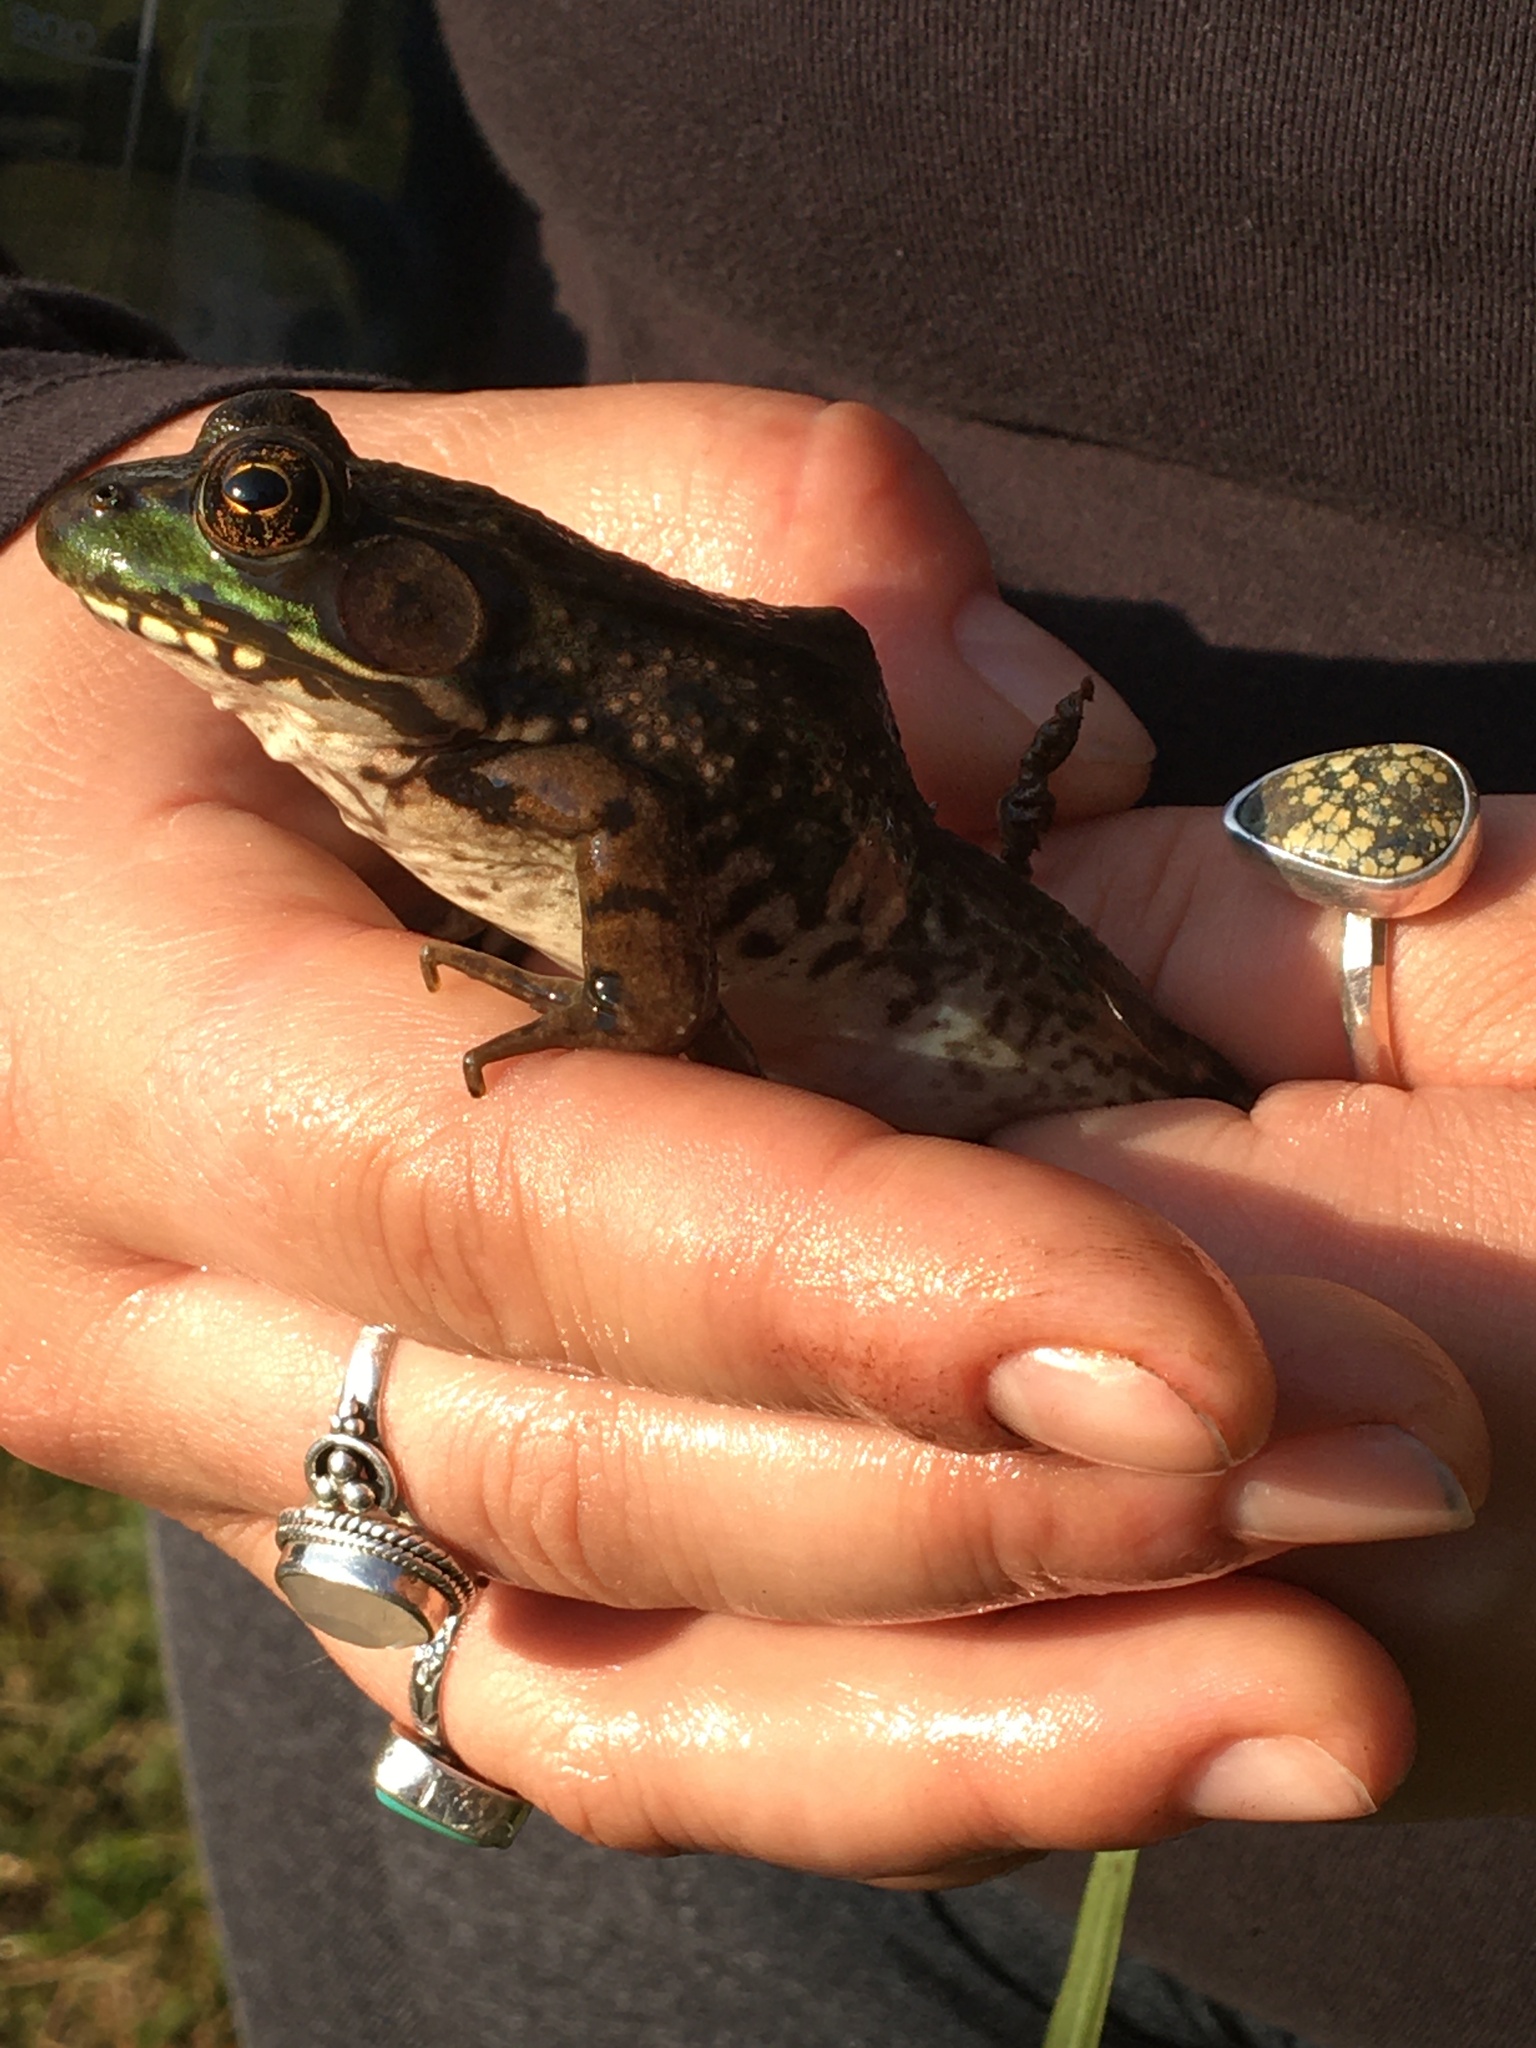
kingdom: Animalia
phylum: Chordata
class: Amphibia
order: Anura
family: Ranidae
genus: Lithobates
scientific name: Lithobates clamitans
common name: Green frog
